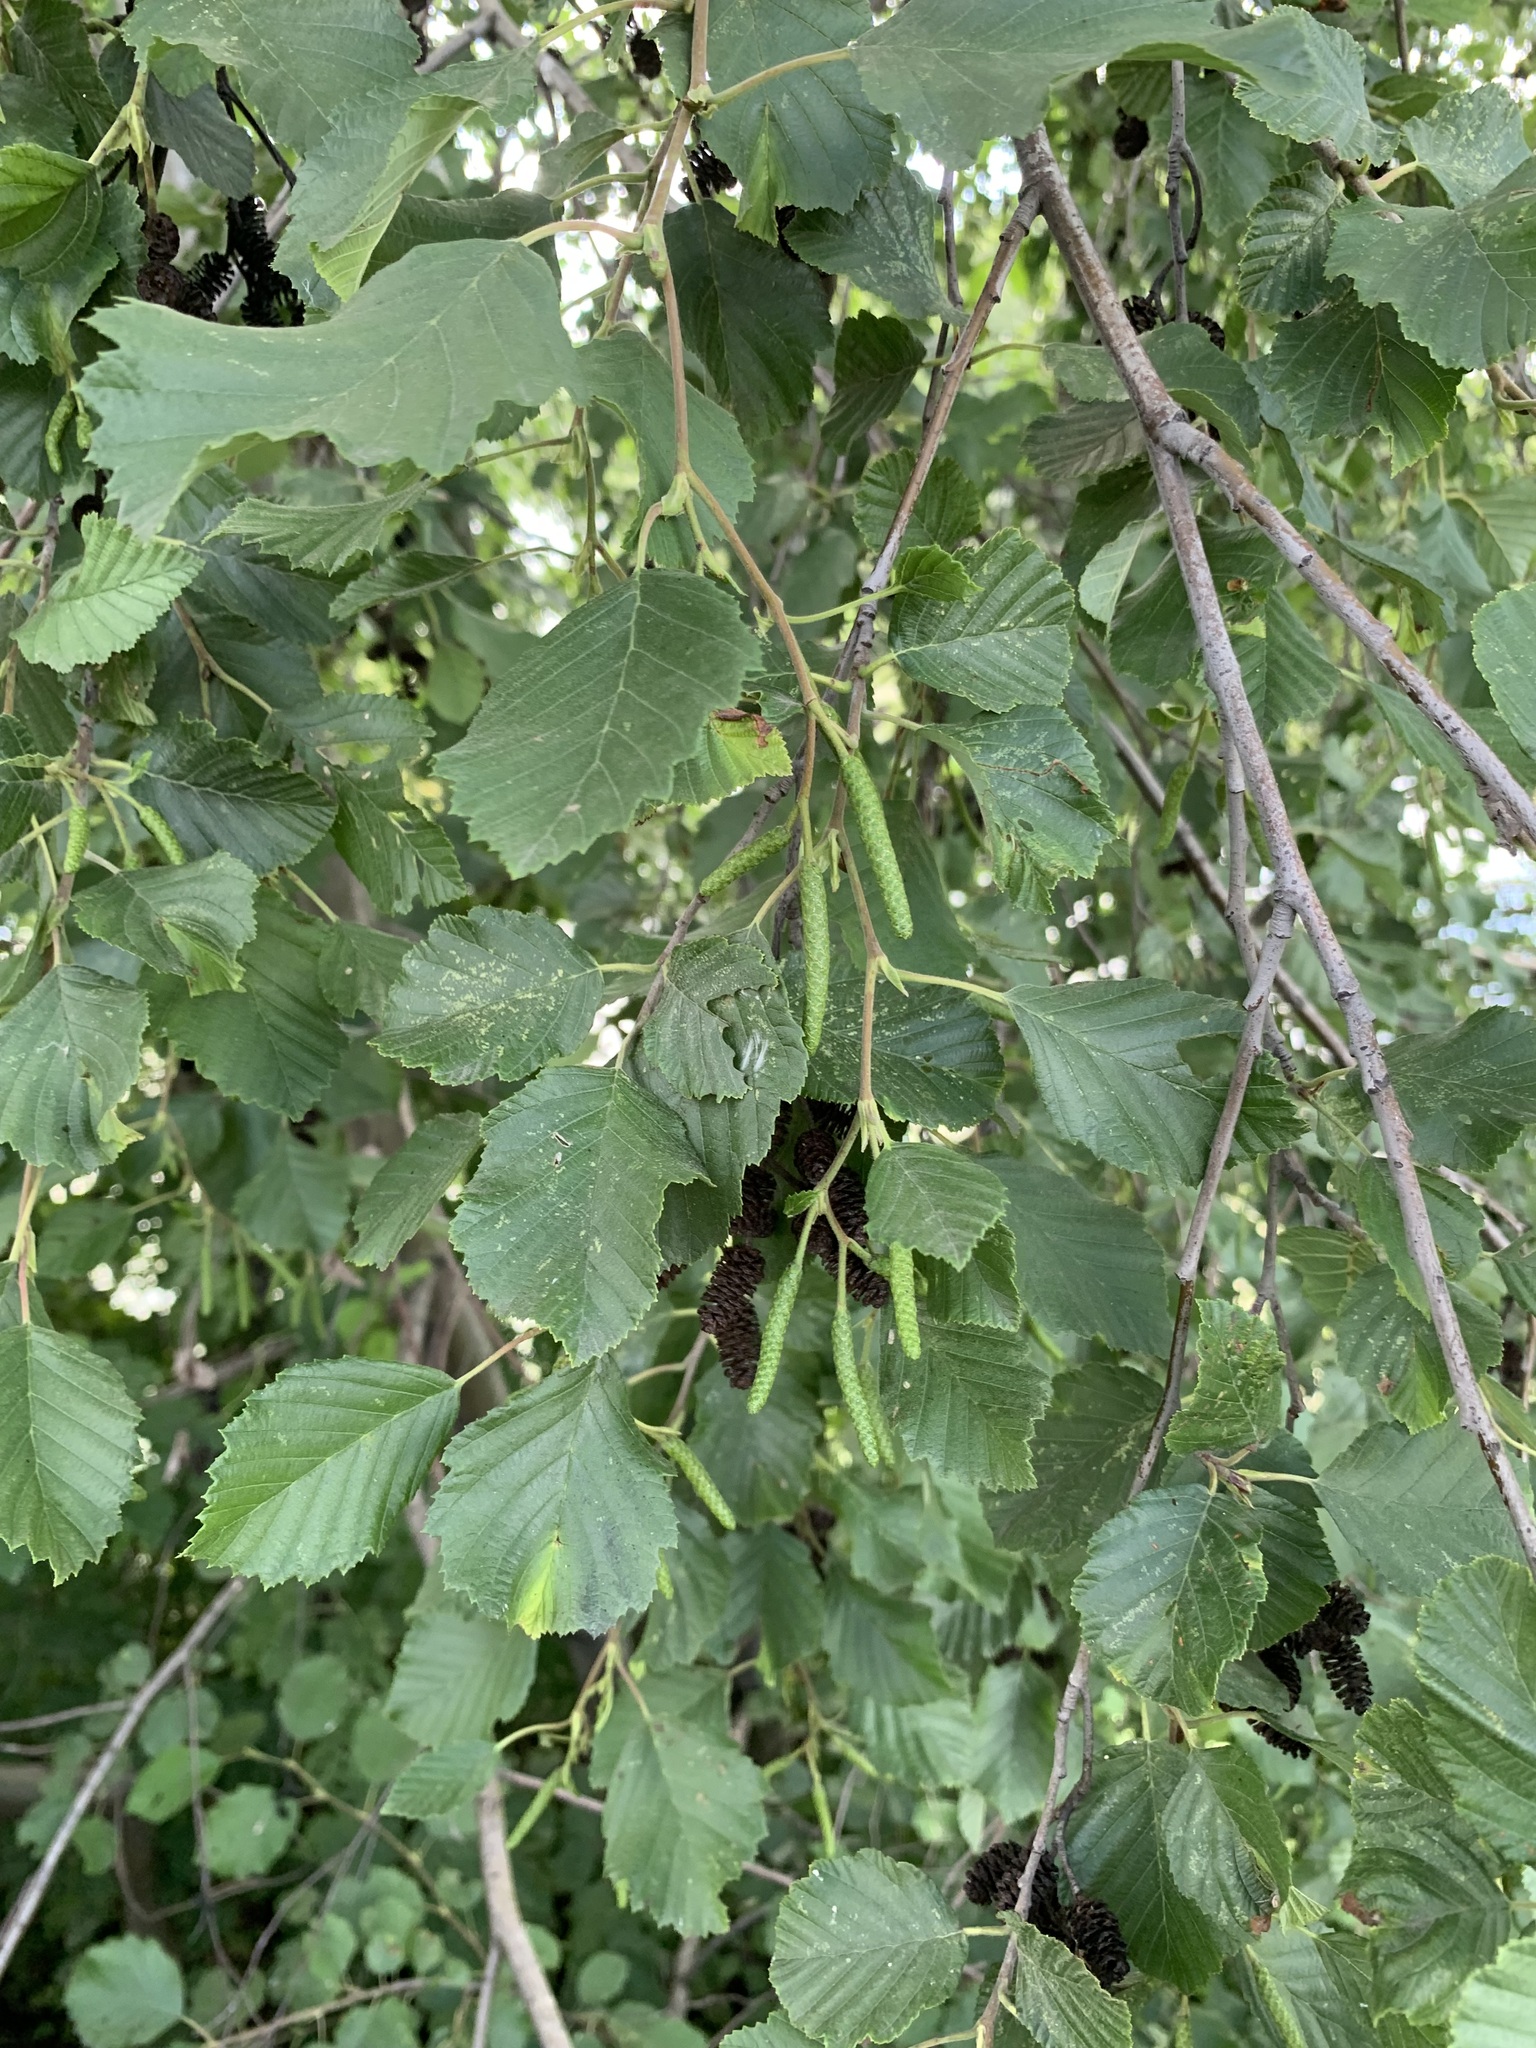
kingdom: Plantae
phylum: Tracheophyta
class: Magnoliopsida
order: Fagales
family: Betulaceae
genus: Alnus
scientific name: Alnus incana
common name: Grey alder
